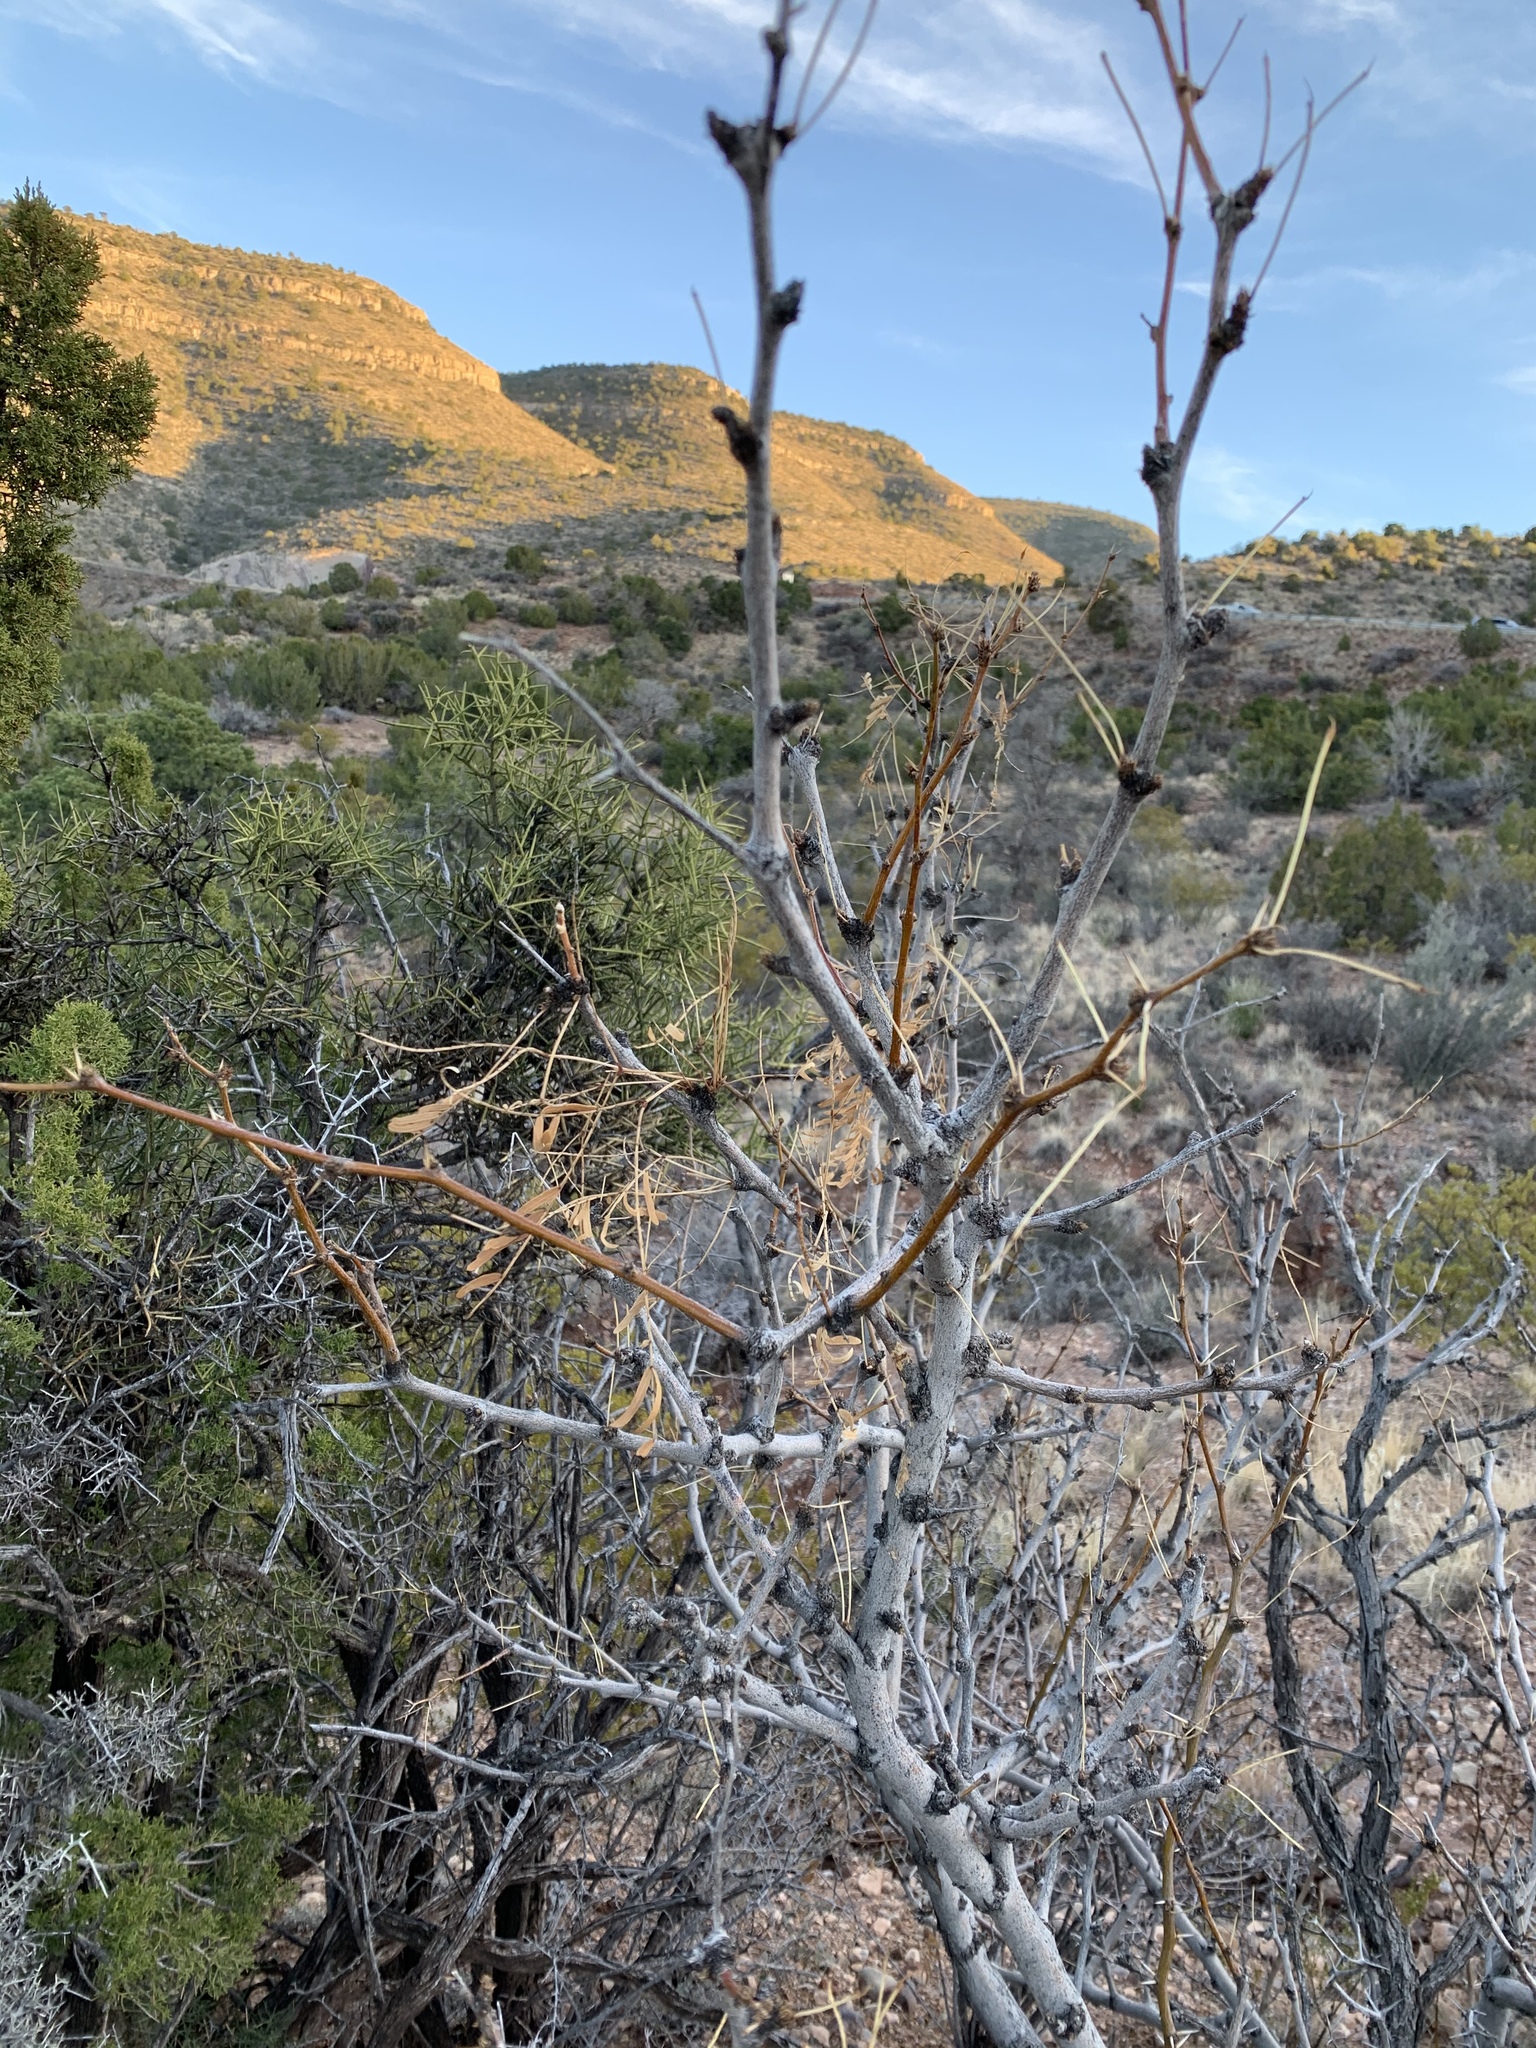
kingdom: Plantae
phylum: Tracheophyta
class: Magnoliopsida
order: Fabales
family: Fabaceae
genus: Prosopis
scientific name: Prosopis glandulosa
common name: Honey mesquite
